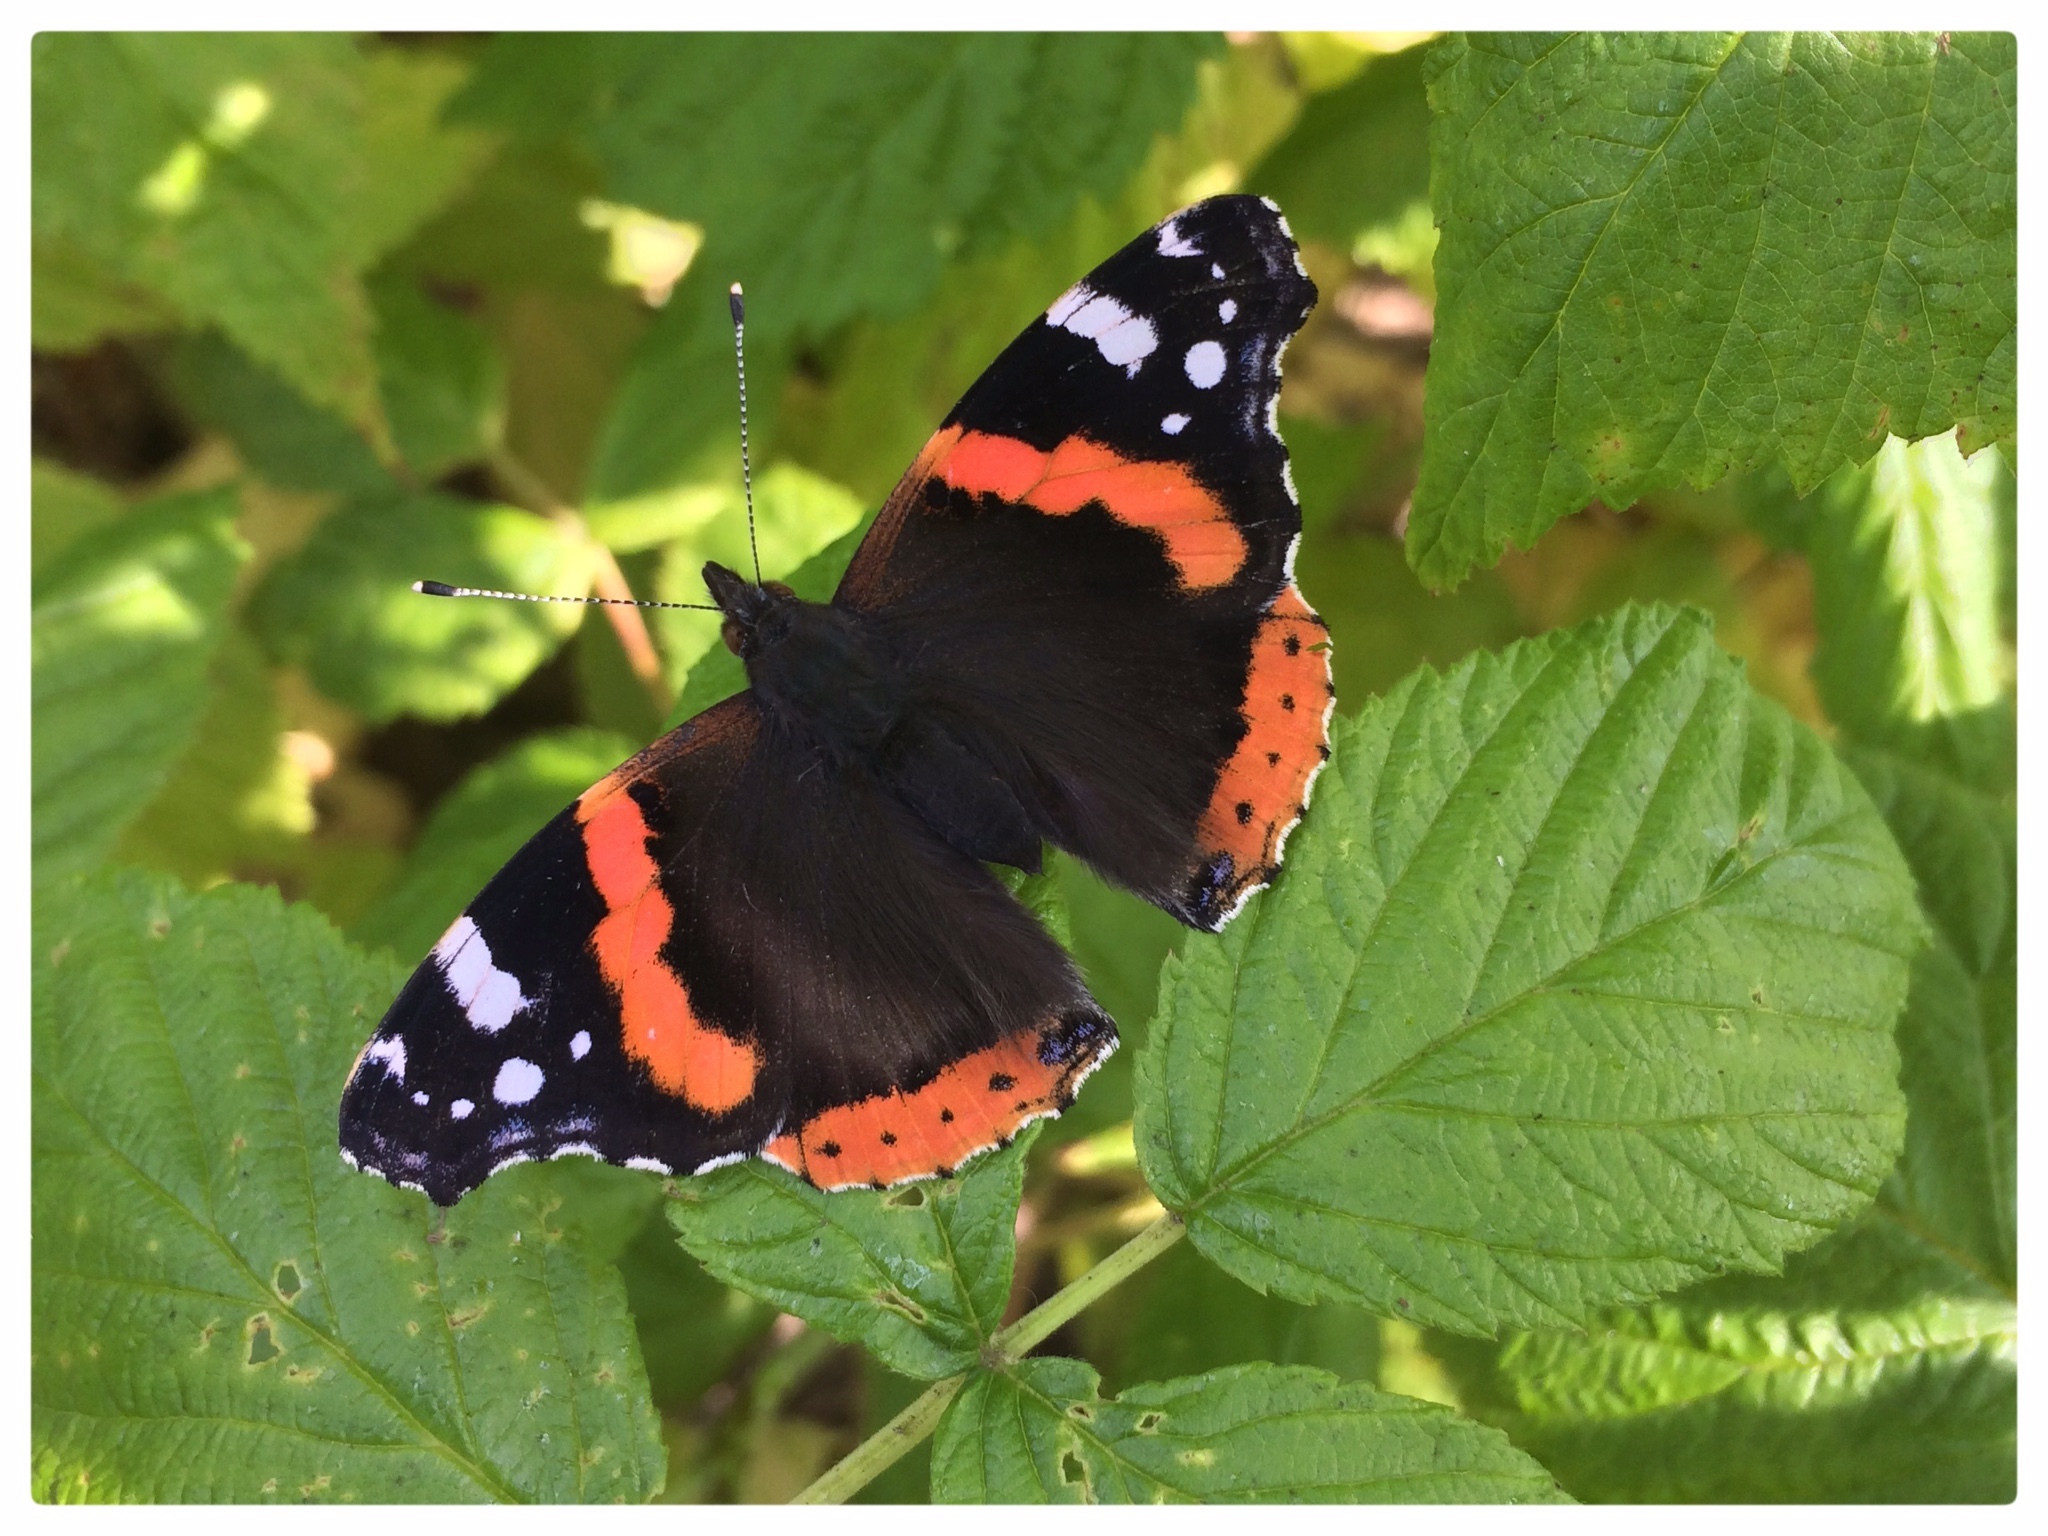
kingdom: Animalia
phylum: Arthropoda
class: Insecta
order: Lepidoptera
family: Nymphalidae
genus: Vanessa
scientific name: Vanessa atalanta
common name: Red admiral
